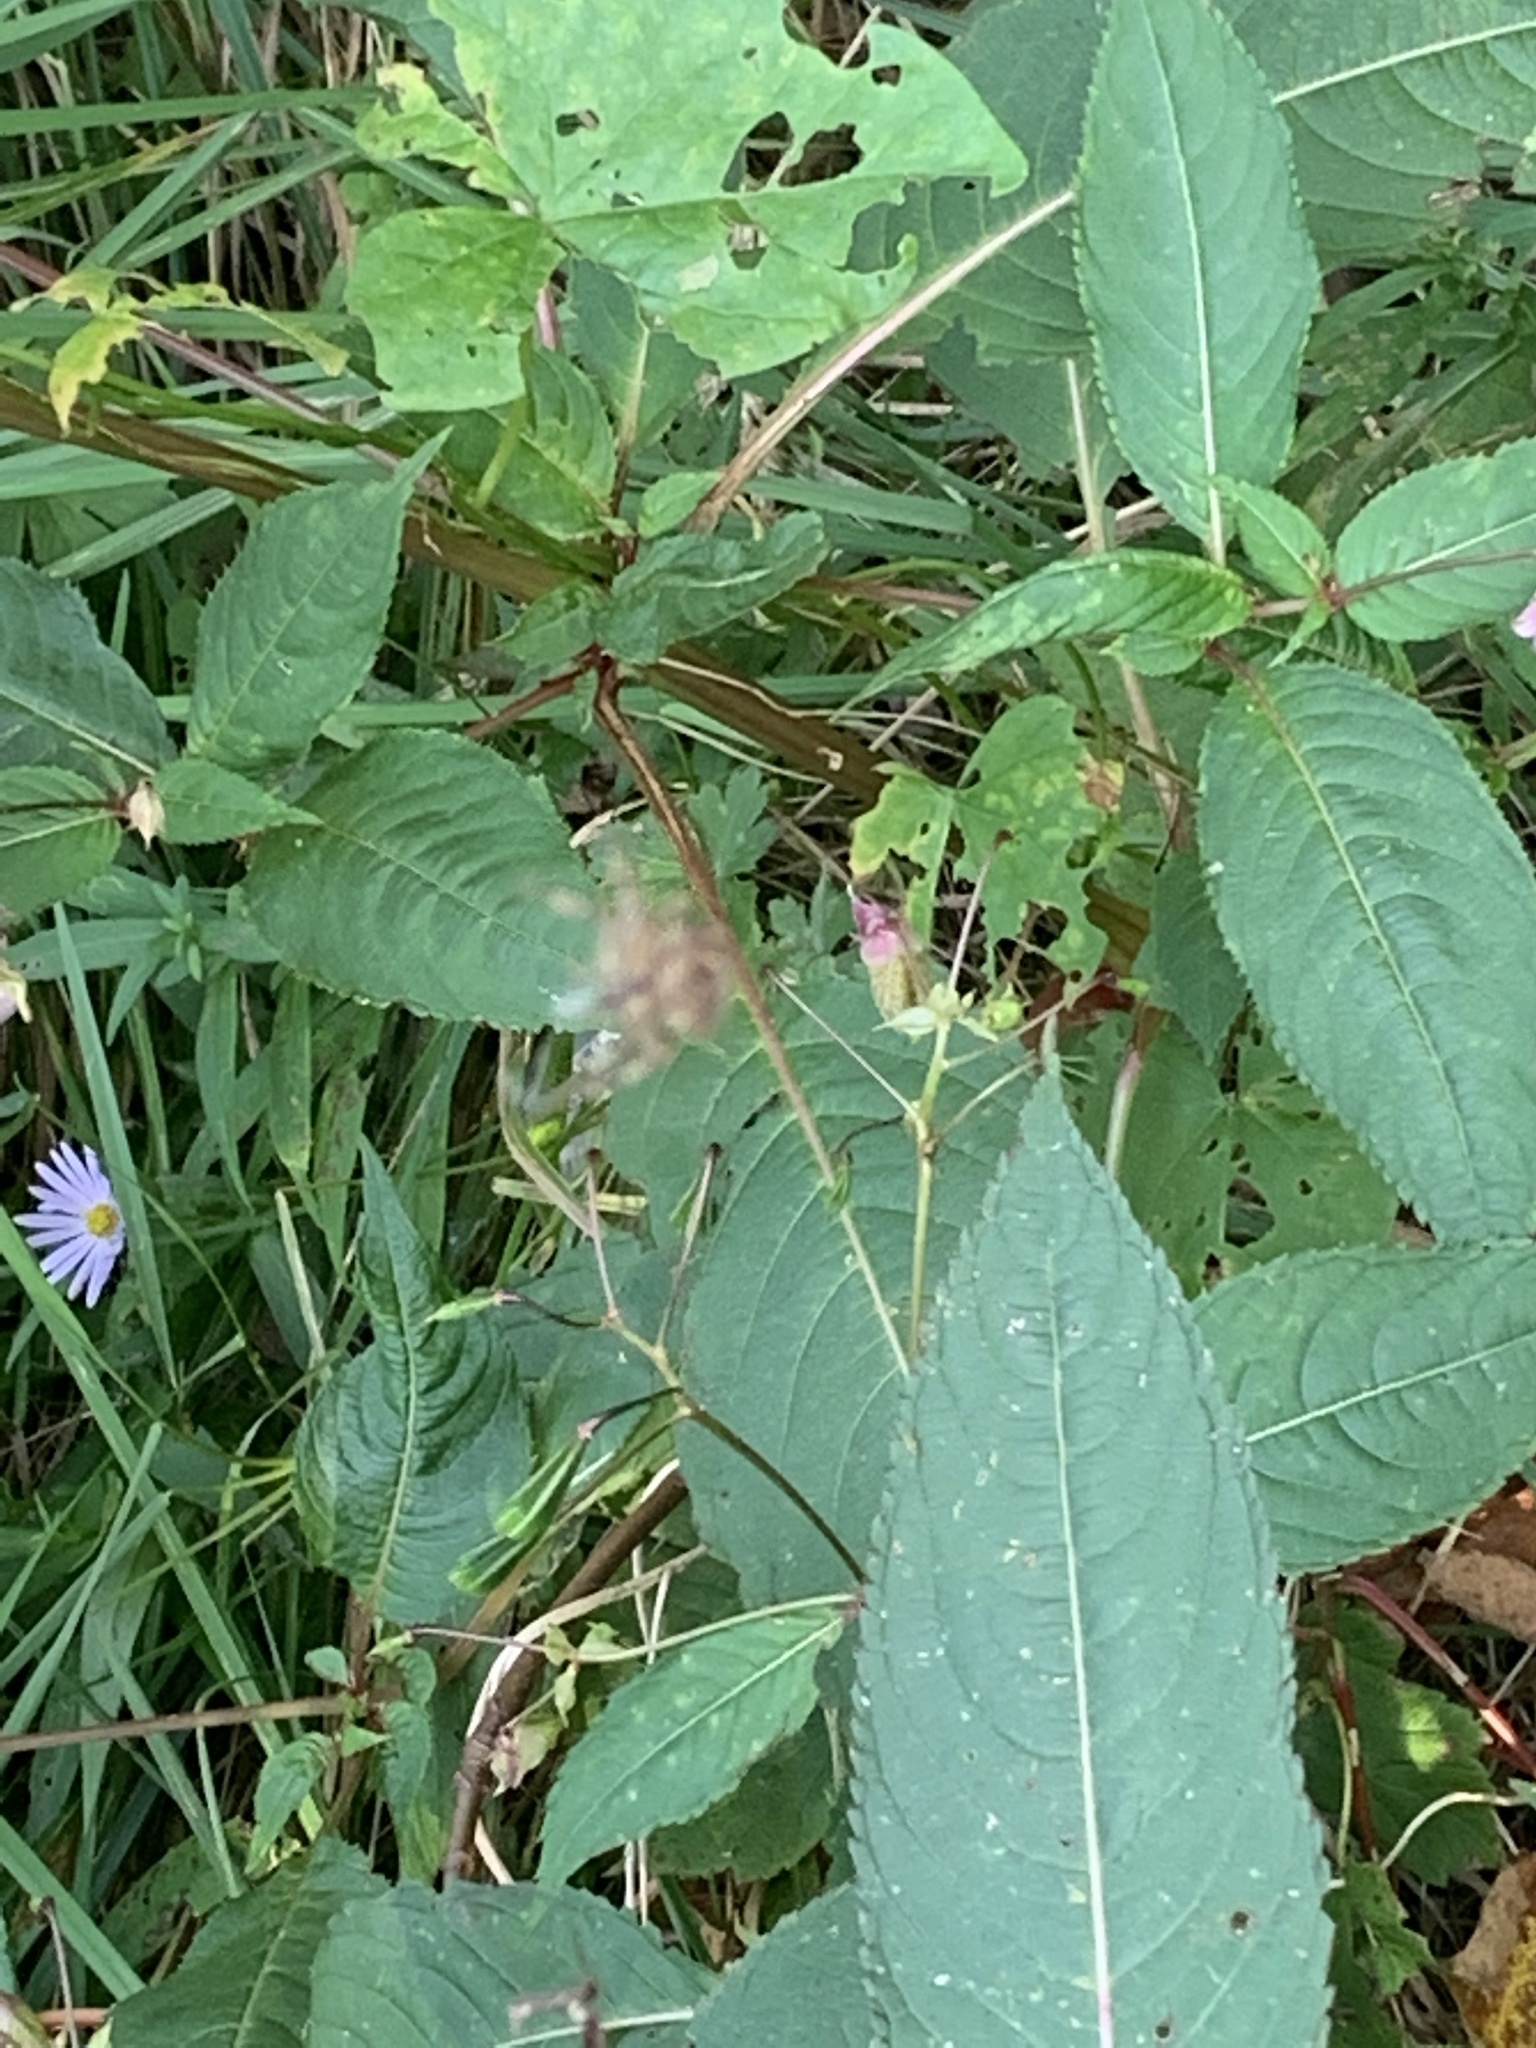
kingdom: Plantae
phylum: Tracheophyta
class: Magnoliopsida
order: Ericales
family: Balsaminaceae
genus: Impatiens
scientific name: Impatiens glandulifera
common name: Himalayan balsam
